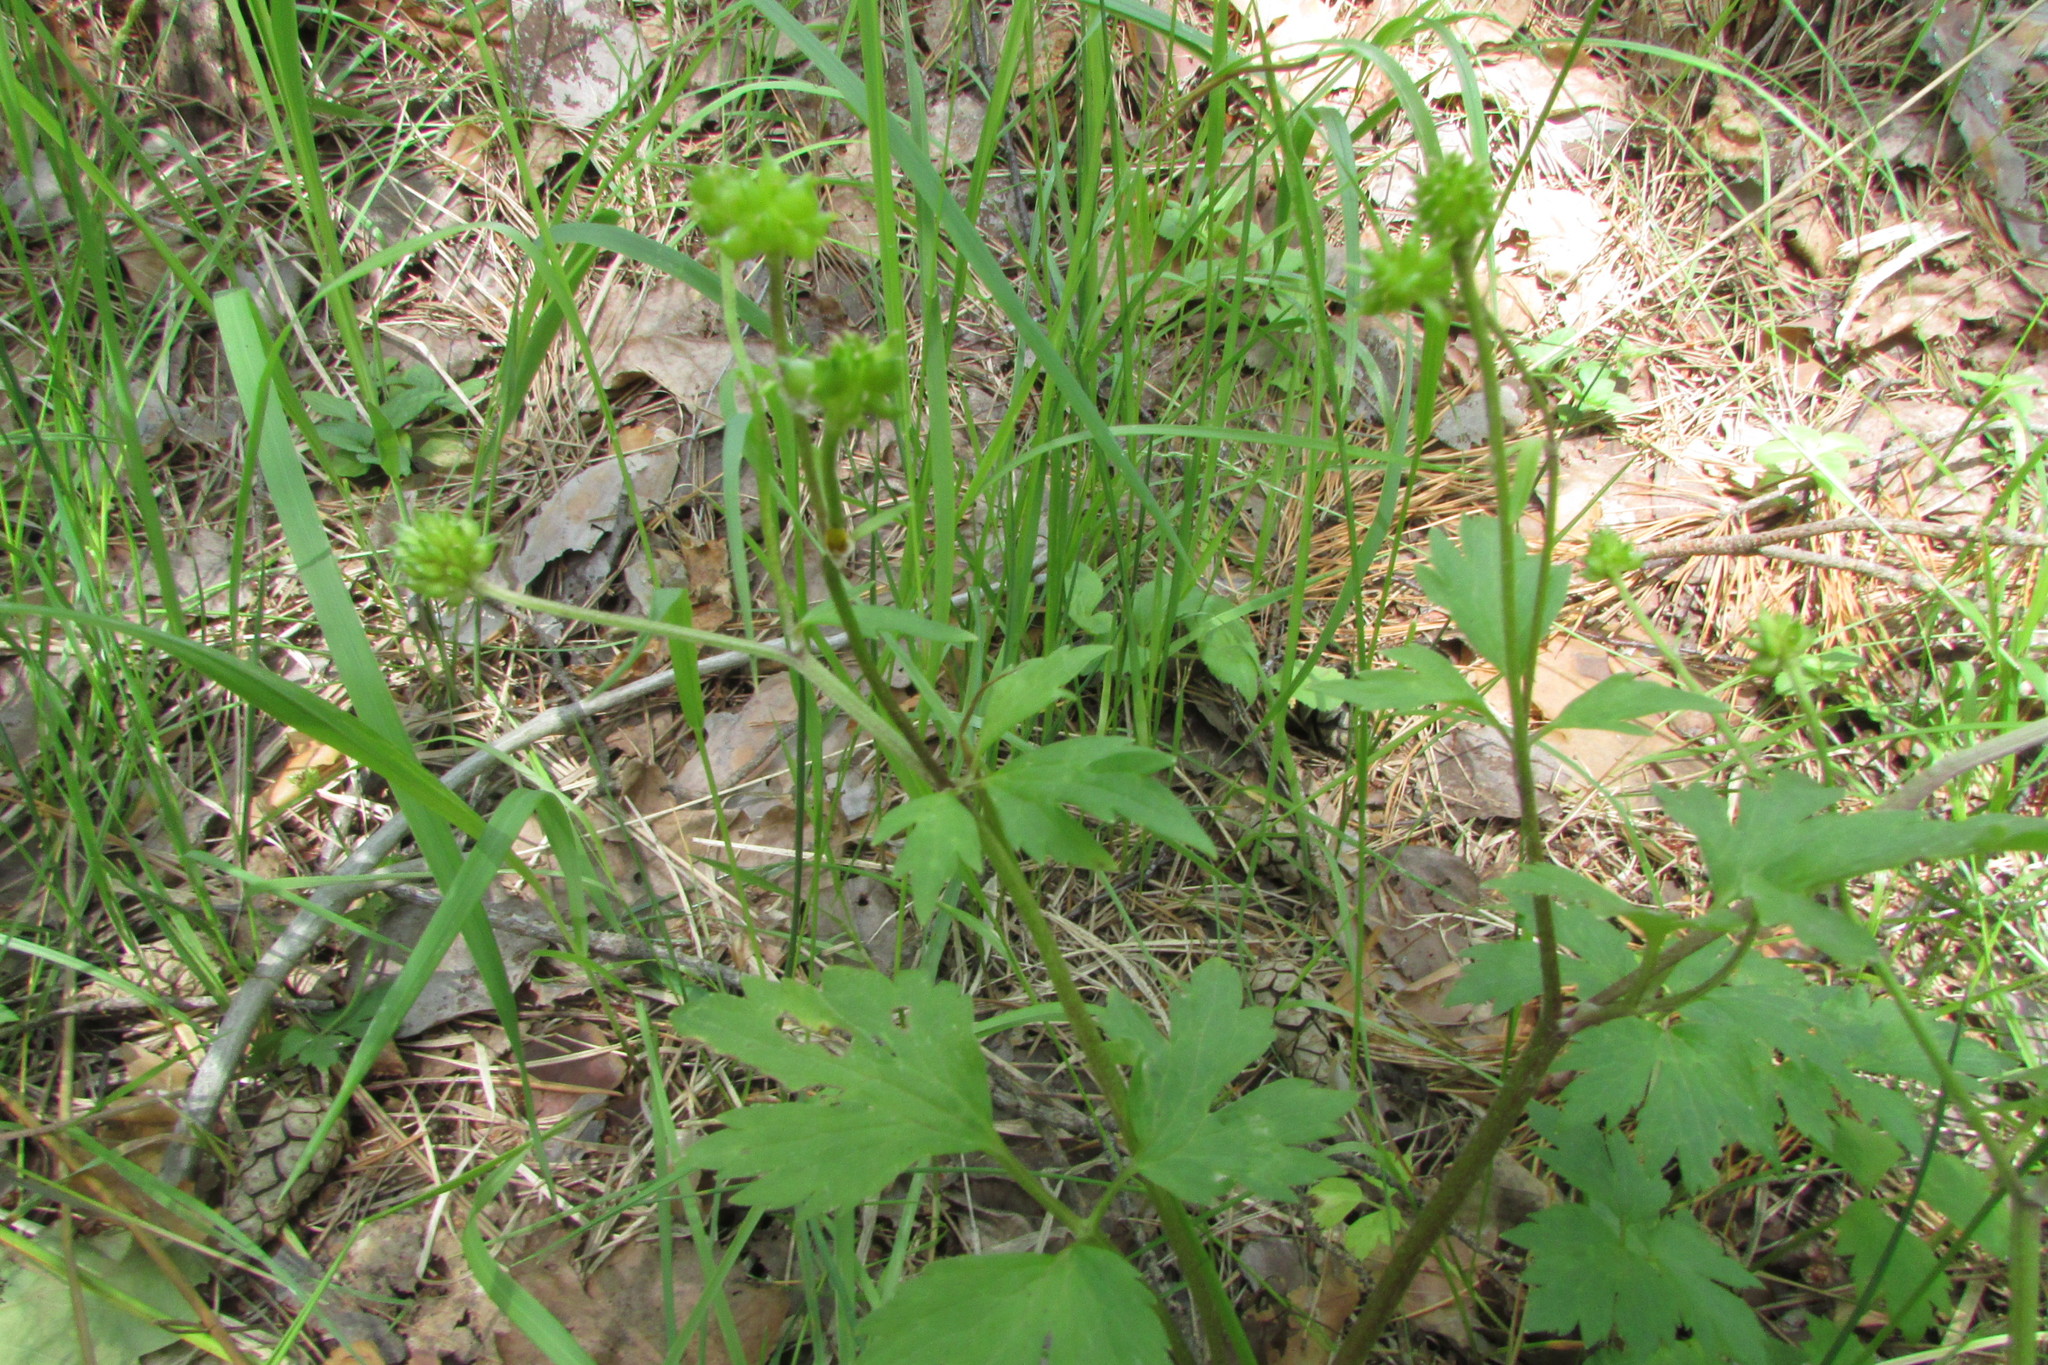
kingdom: Plantae
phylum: Tracheophyta
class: Magnoliopsida
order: Ranunculales
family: Ranunculaceae
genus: Ranunculus
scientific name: Ranunculus repens
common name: Creeping buttercup
